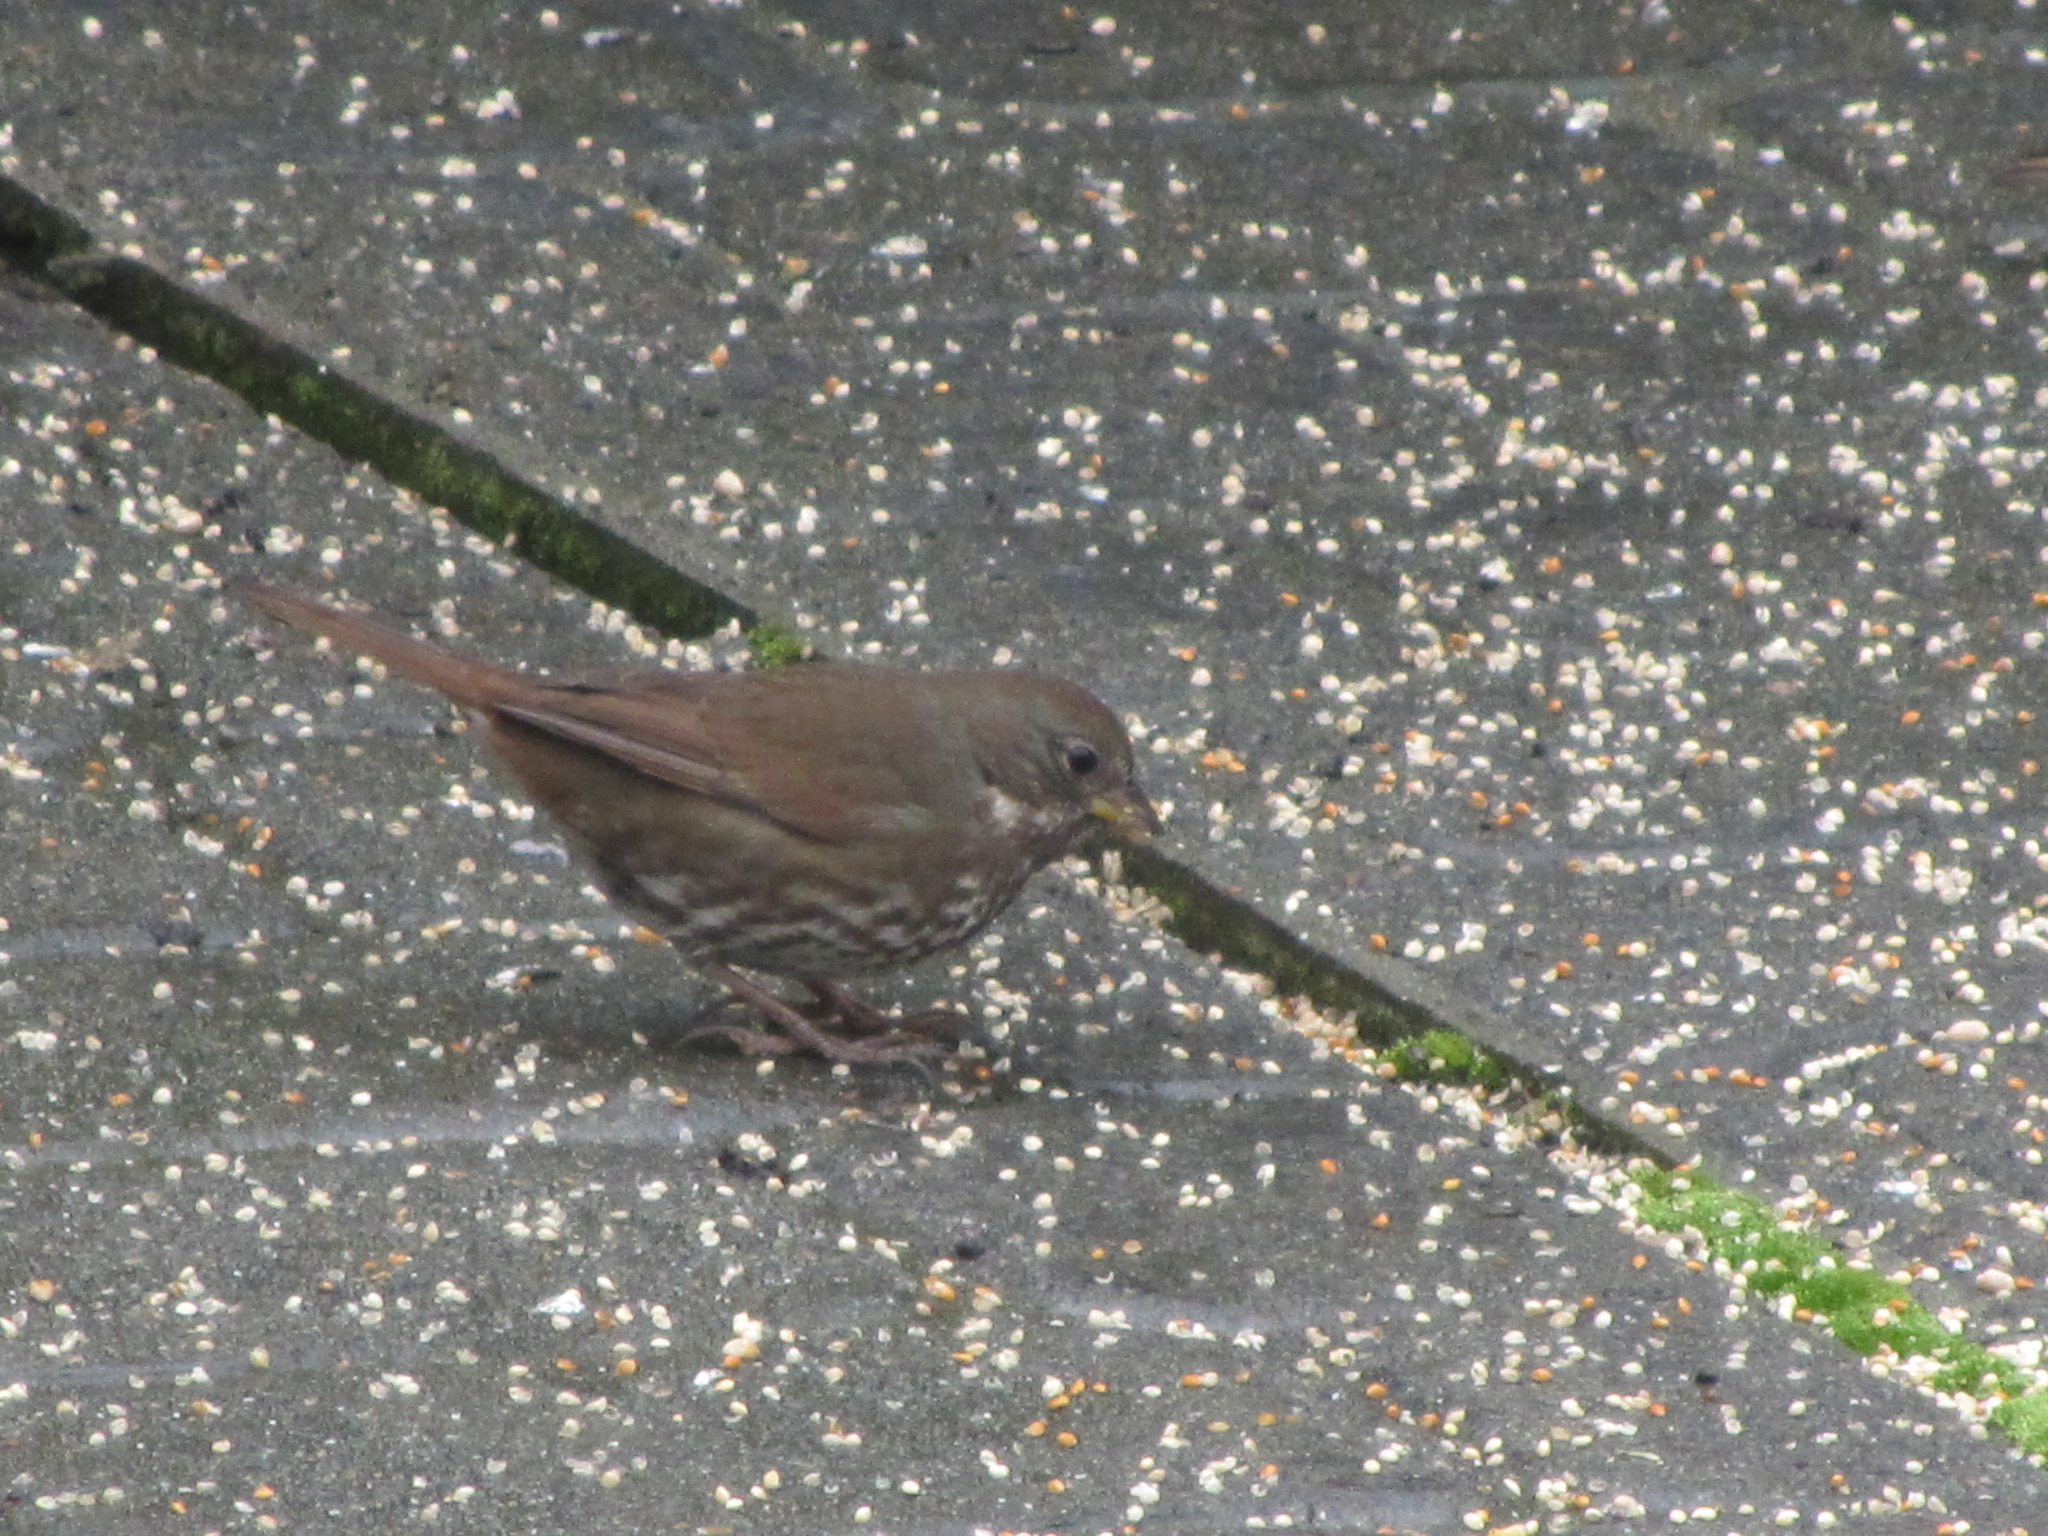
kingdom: Animalia
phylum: Chordata
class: Aves
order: Passeriformes
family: Passerellidae
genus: Passerella
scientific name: Passerella iliaca
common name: Fox sparrow
